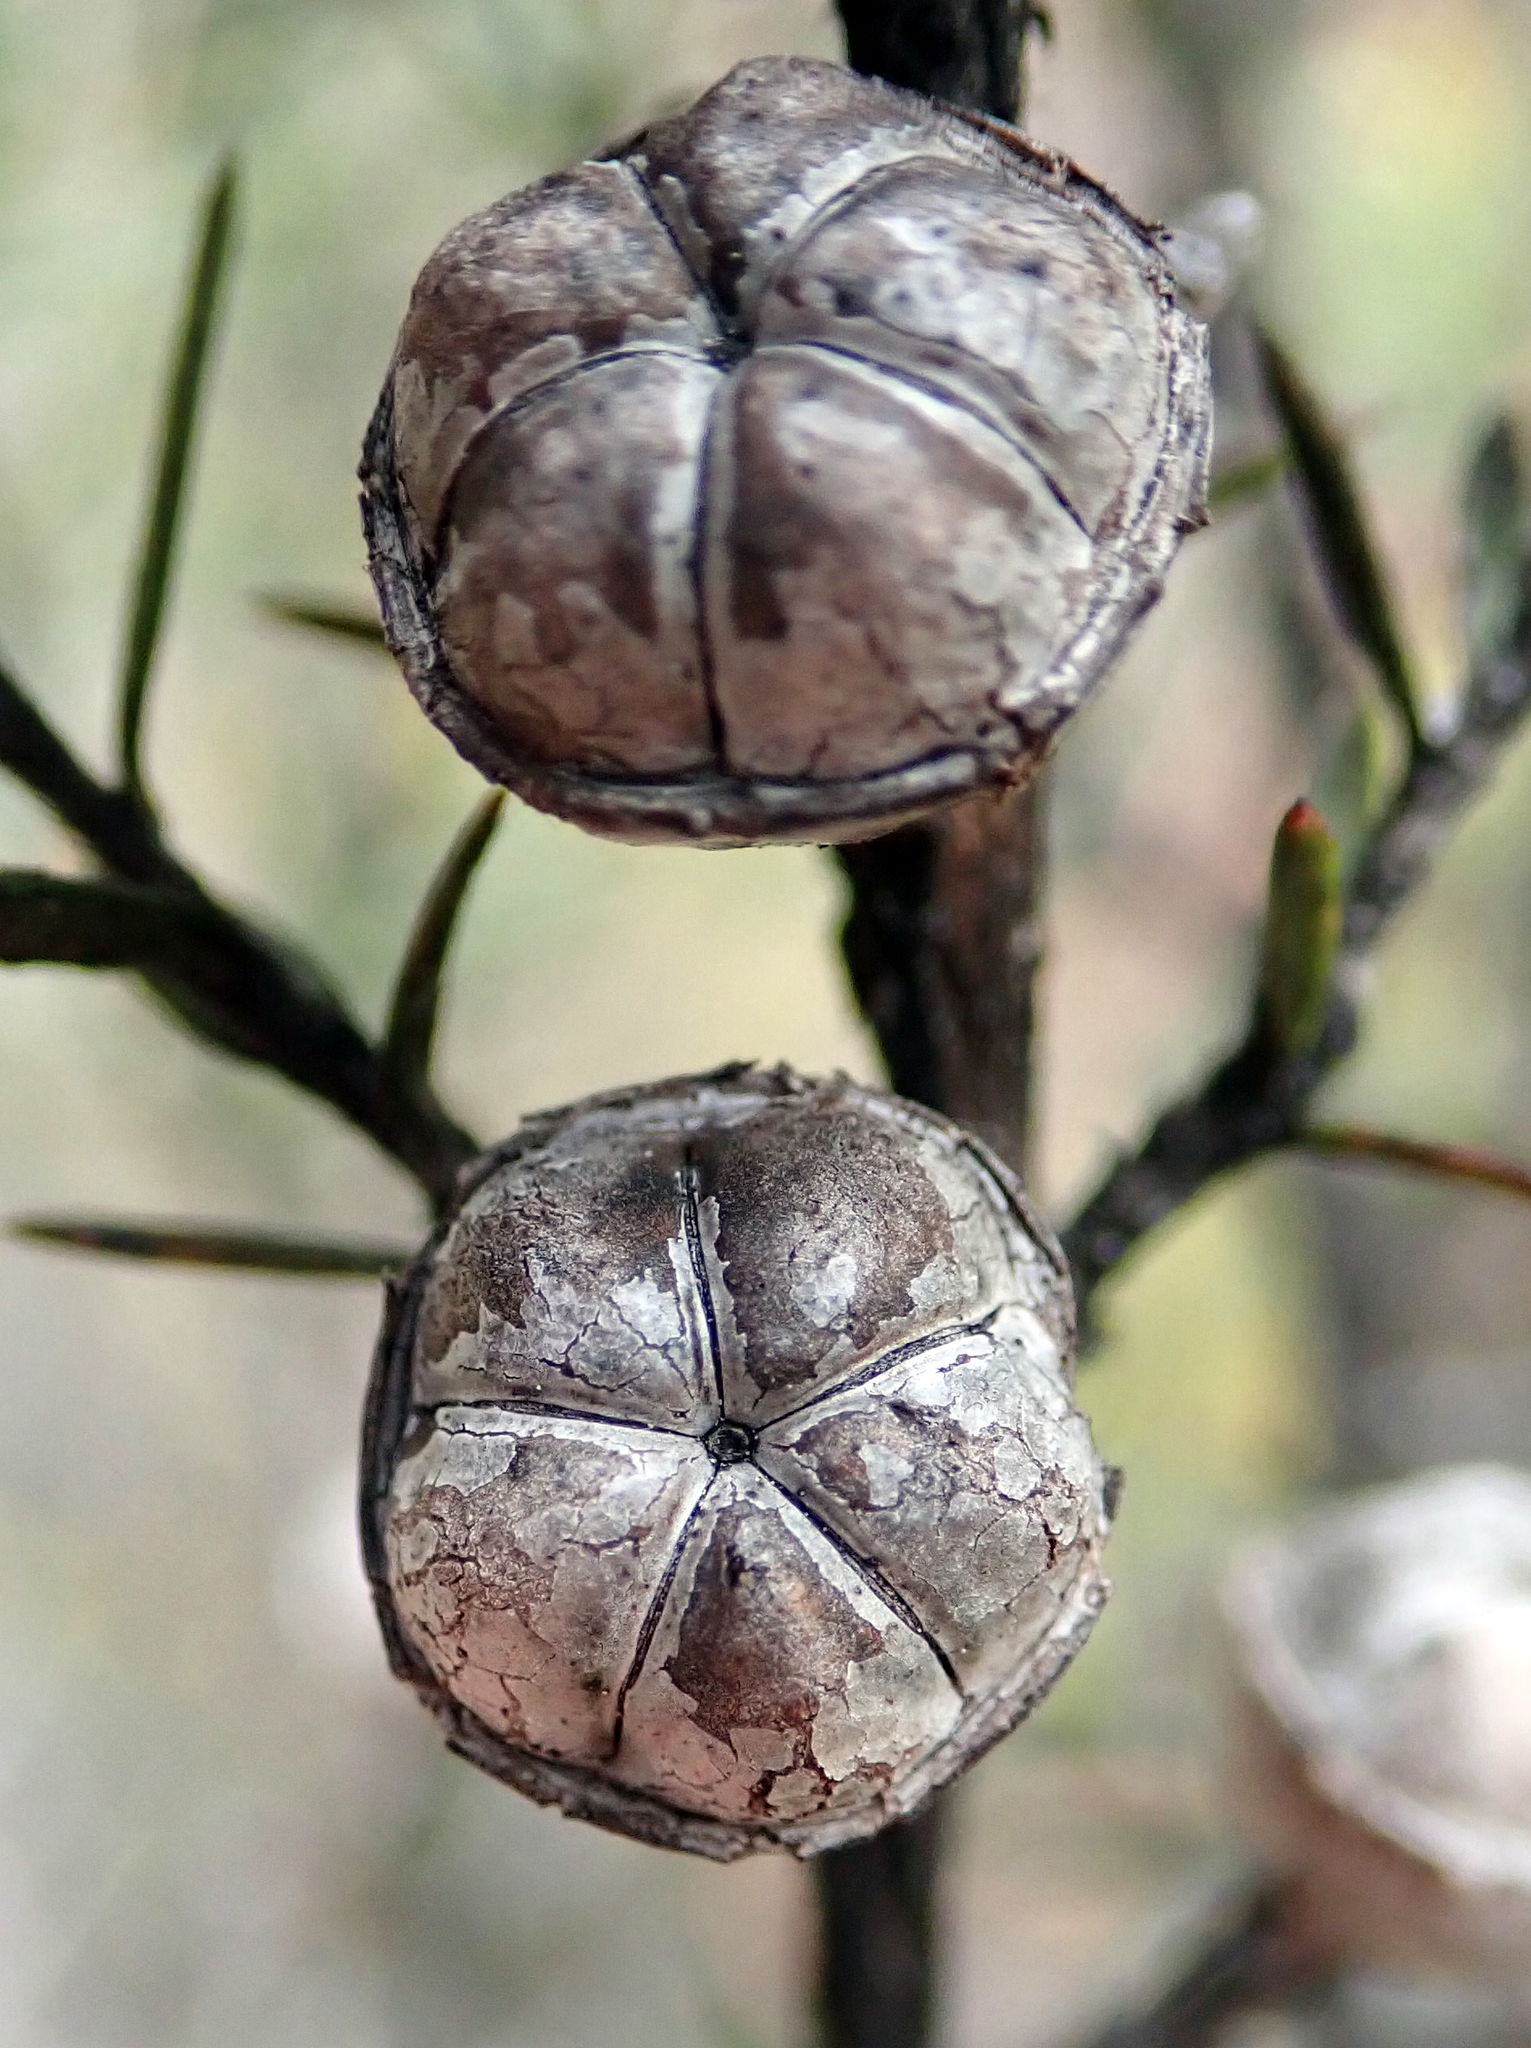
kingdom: Plantae
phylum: Tracheophyta
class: Magnoliopsida
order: Myrtales
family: Myrtaceae
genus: Leptospermum
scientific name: Leptospermum scoparium
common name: Broom tea-tree
